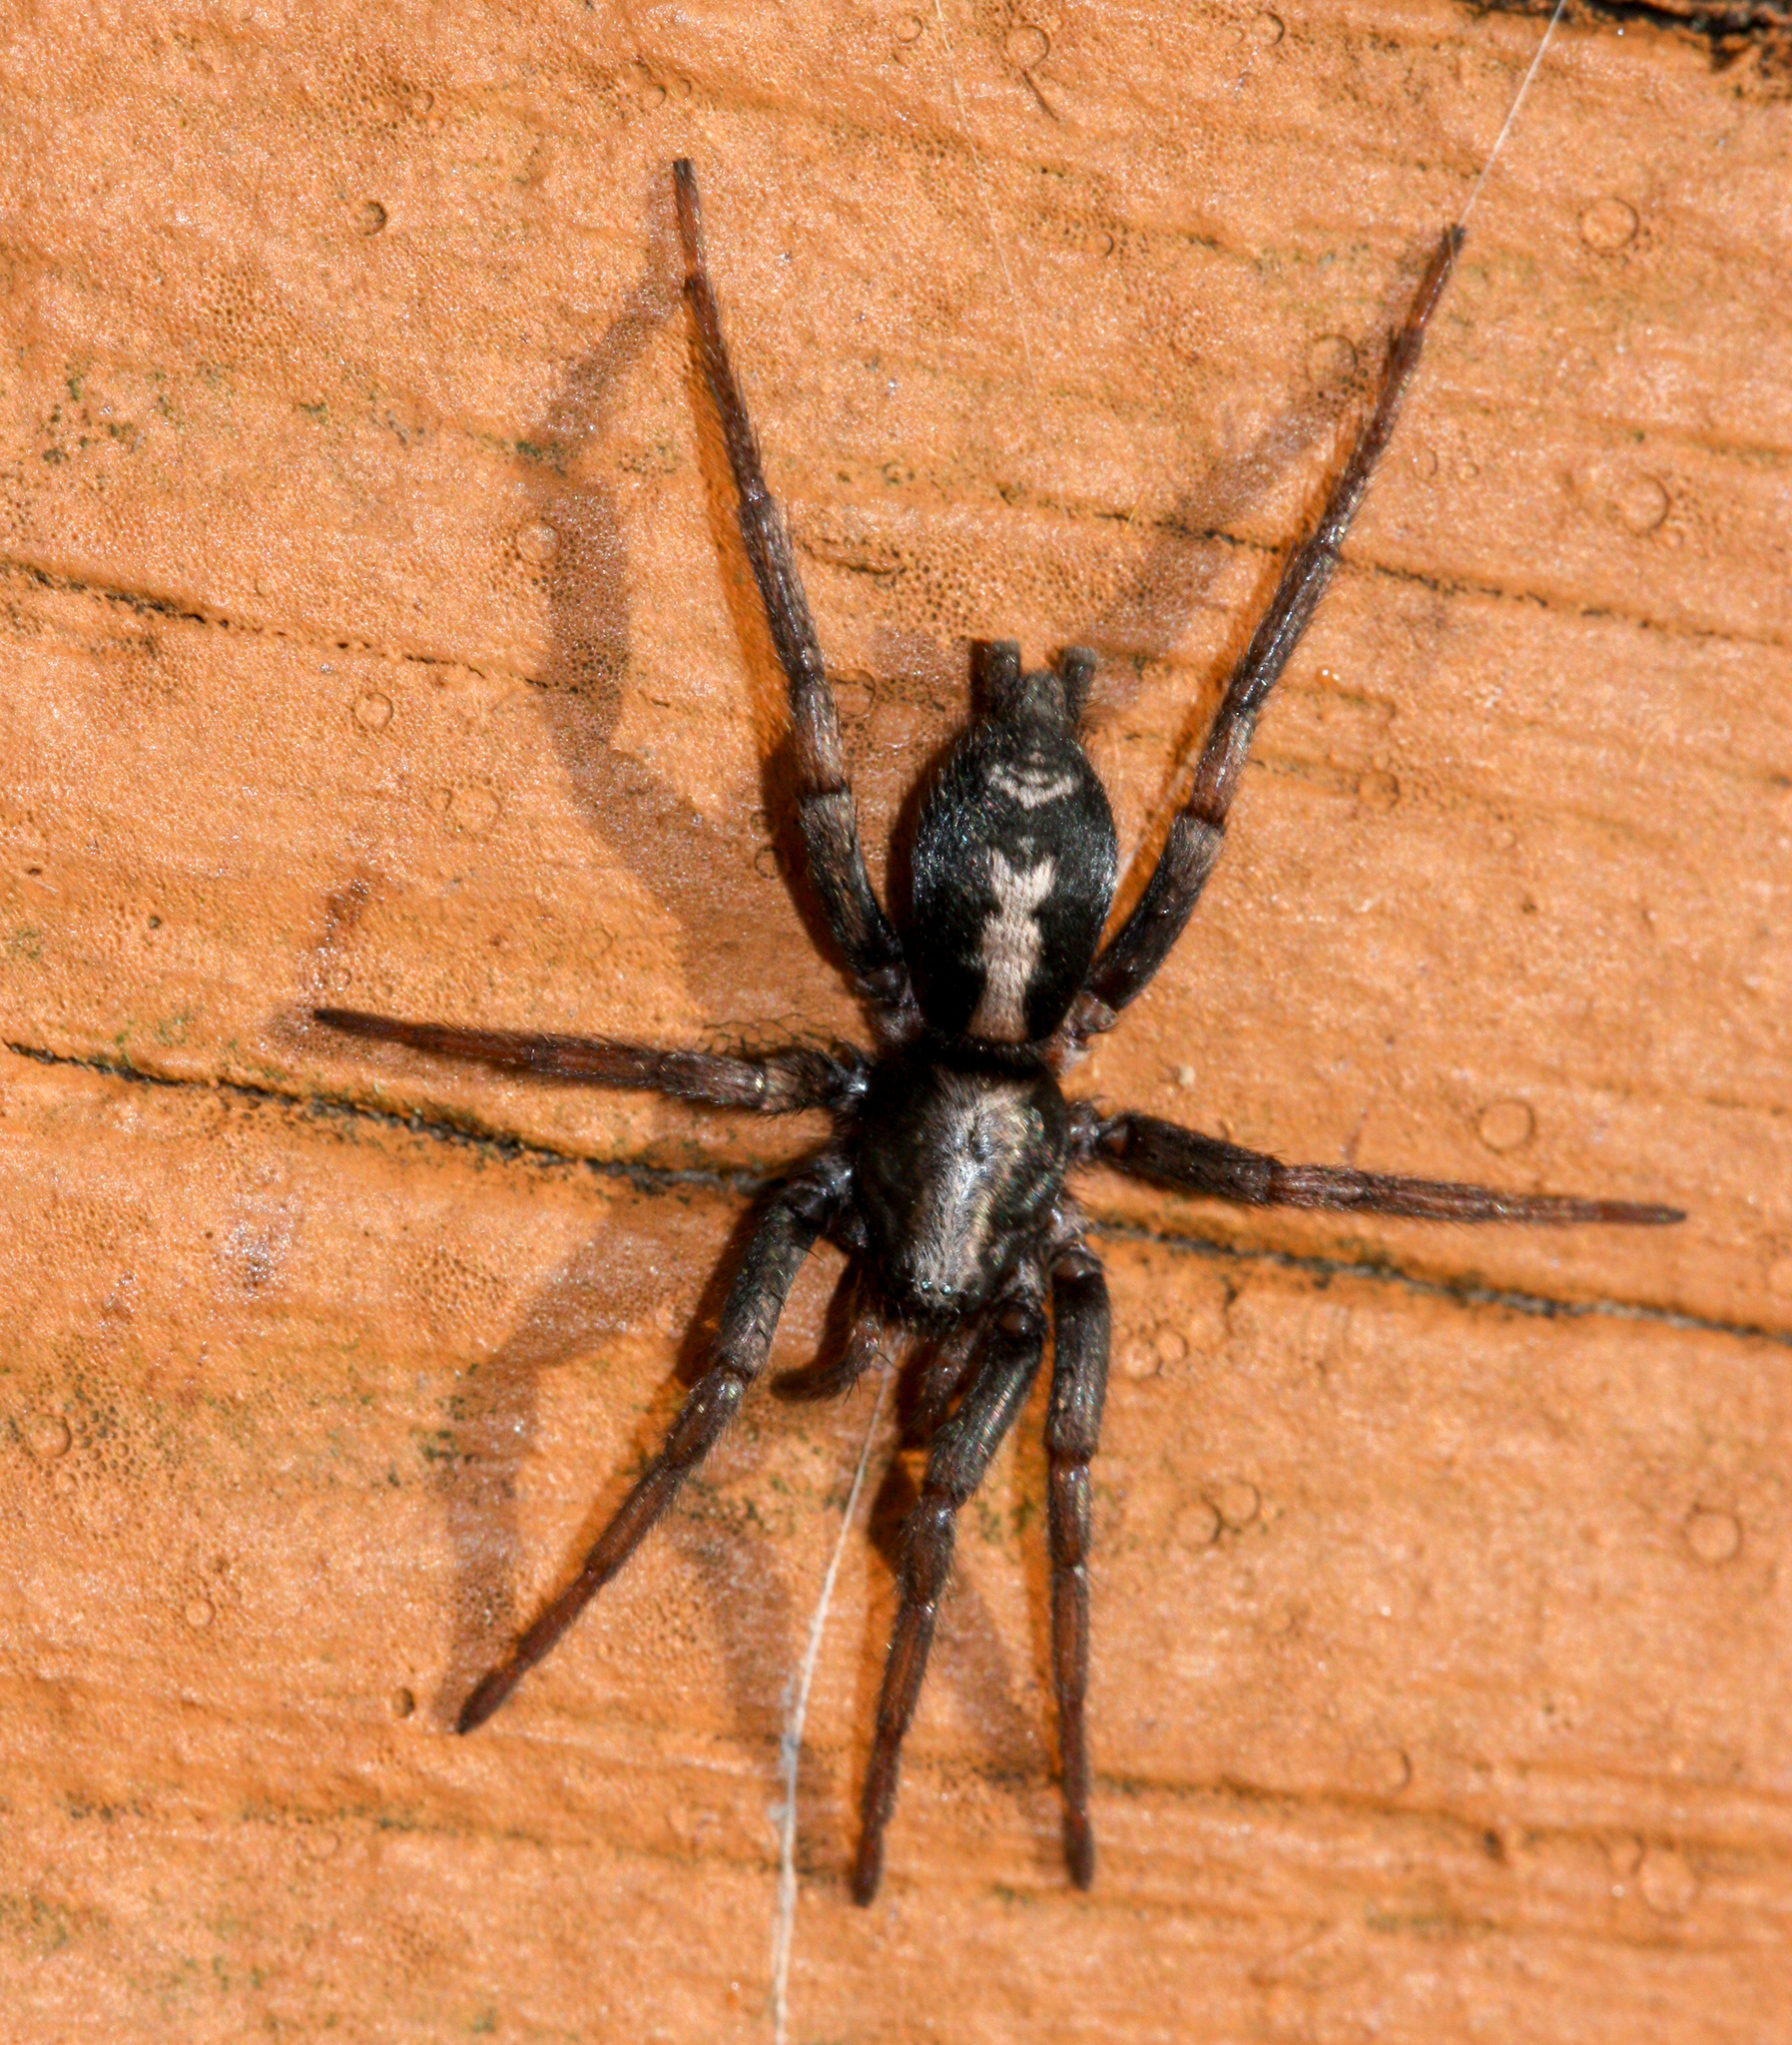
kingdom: Animalia
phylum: Arthropoda
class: Arachnida
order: Araneae
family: Gnaphosidae
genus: Herpyllus
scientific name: Herpyllus ecclesiasticus
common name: Eastern parson spider
